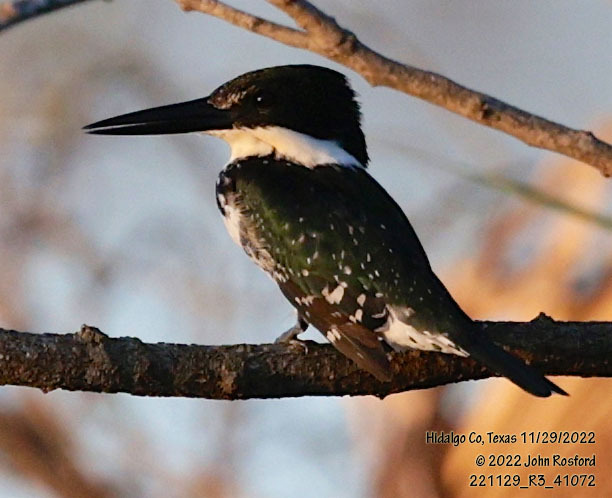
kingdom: Animalia
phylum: Chordata
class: Aves
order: Coraciiformes
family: Alcedinidae
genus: Chloroceryle
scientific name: Chloroceryle americana
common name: Green kingfisher
